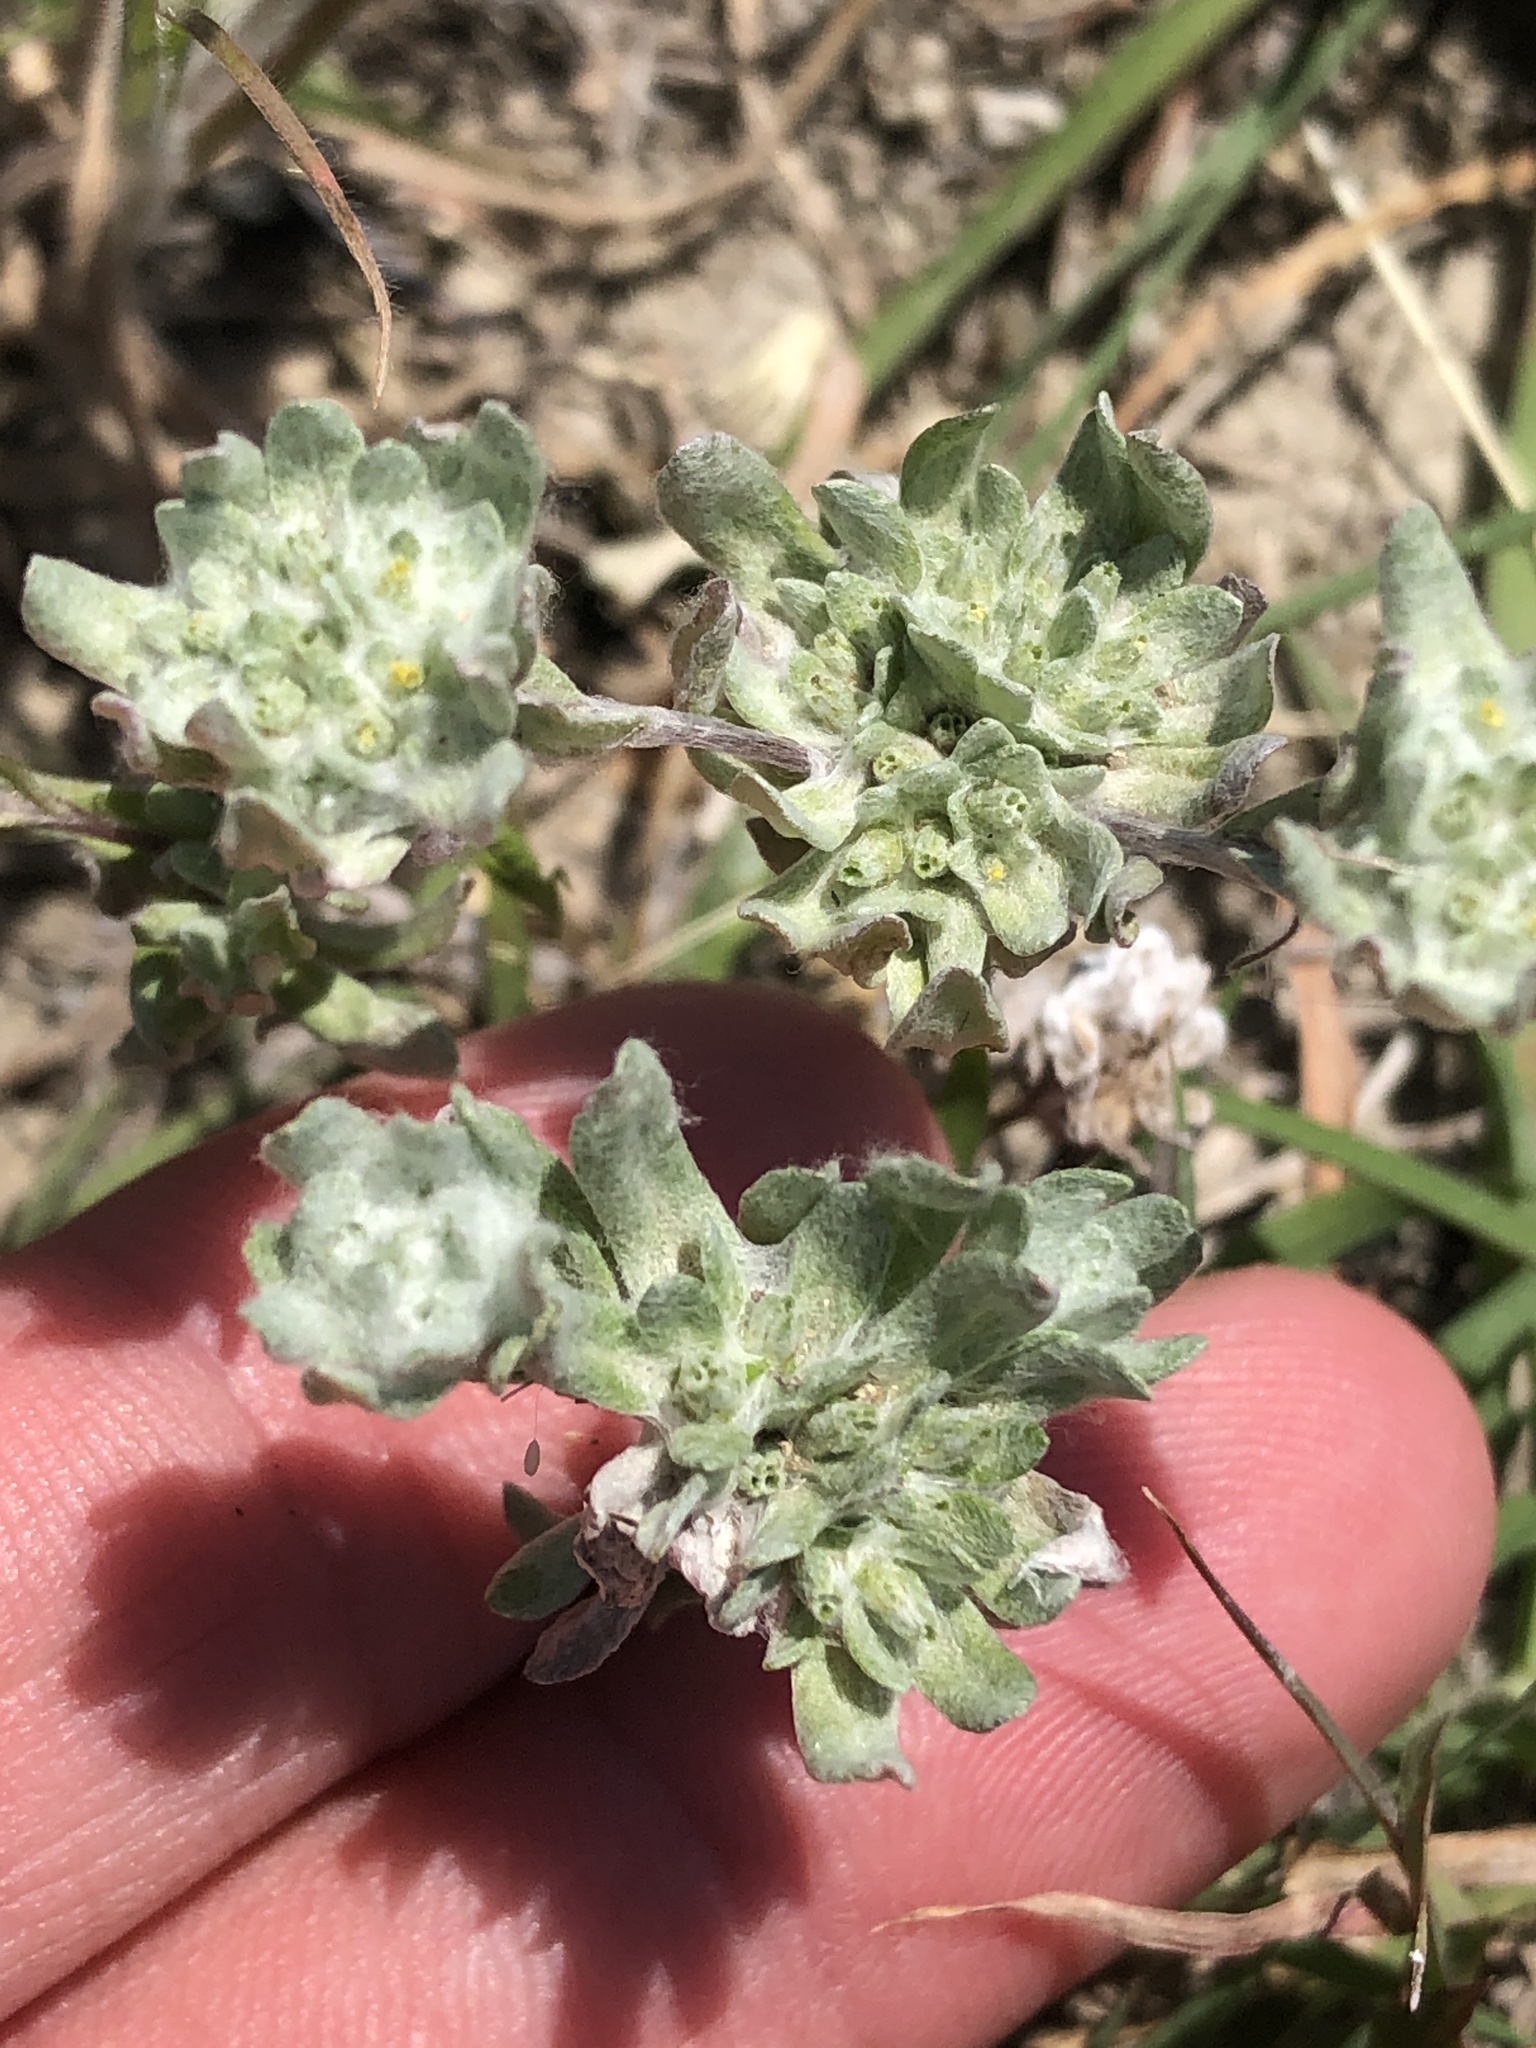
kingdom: Plantae
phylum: Tracheophyta
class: Magnoliopsida
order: Asterales
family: Asteraceae
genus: Diaperia
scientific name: Diaperia prolifera
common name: Big-head rabbit-tobacco
